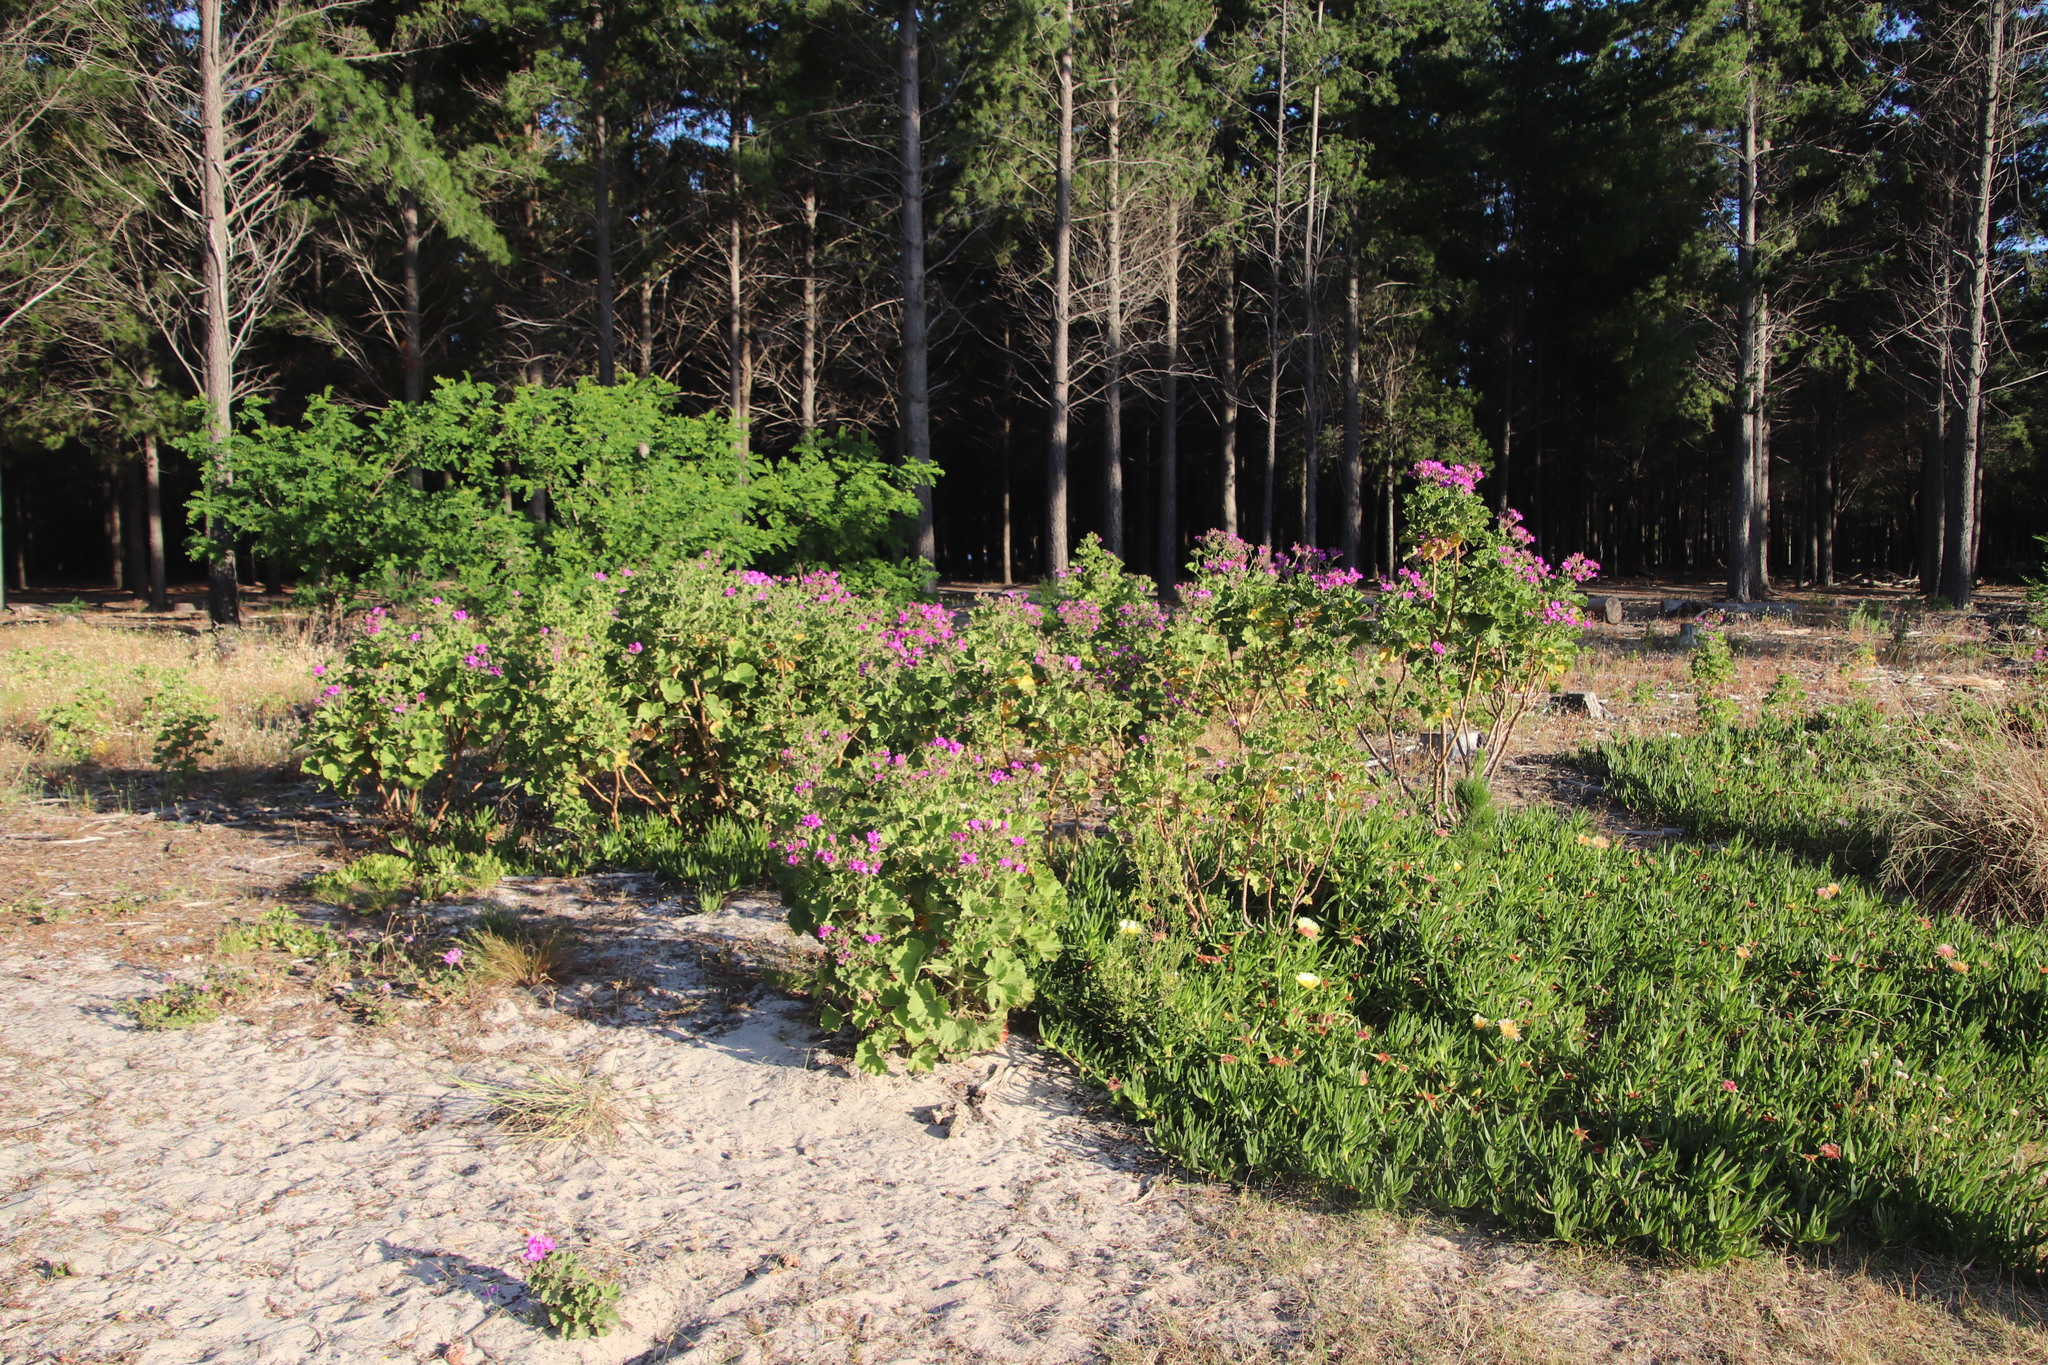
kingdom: Plantae
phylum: Tracheophyta
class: Magnoliopsida
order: Geraniales
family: Geraniaceae
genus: Pelargonium
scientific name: Pelargonium cucullatum
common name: Tree pelargonium
